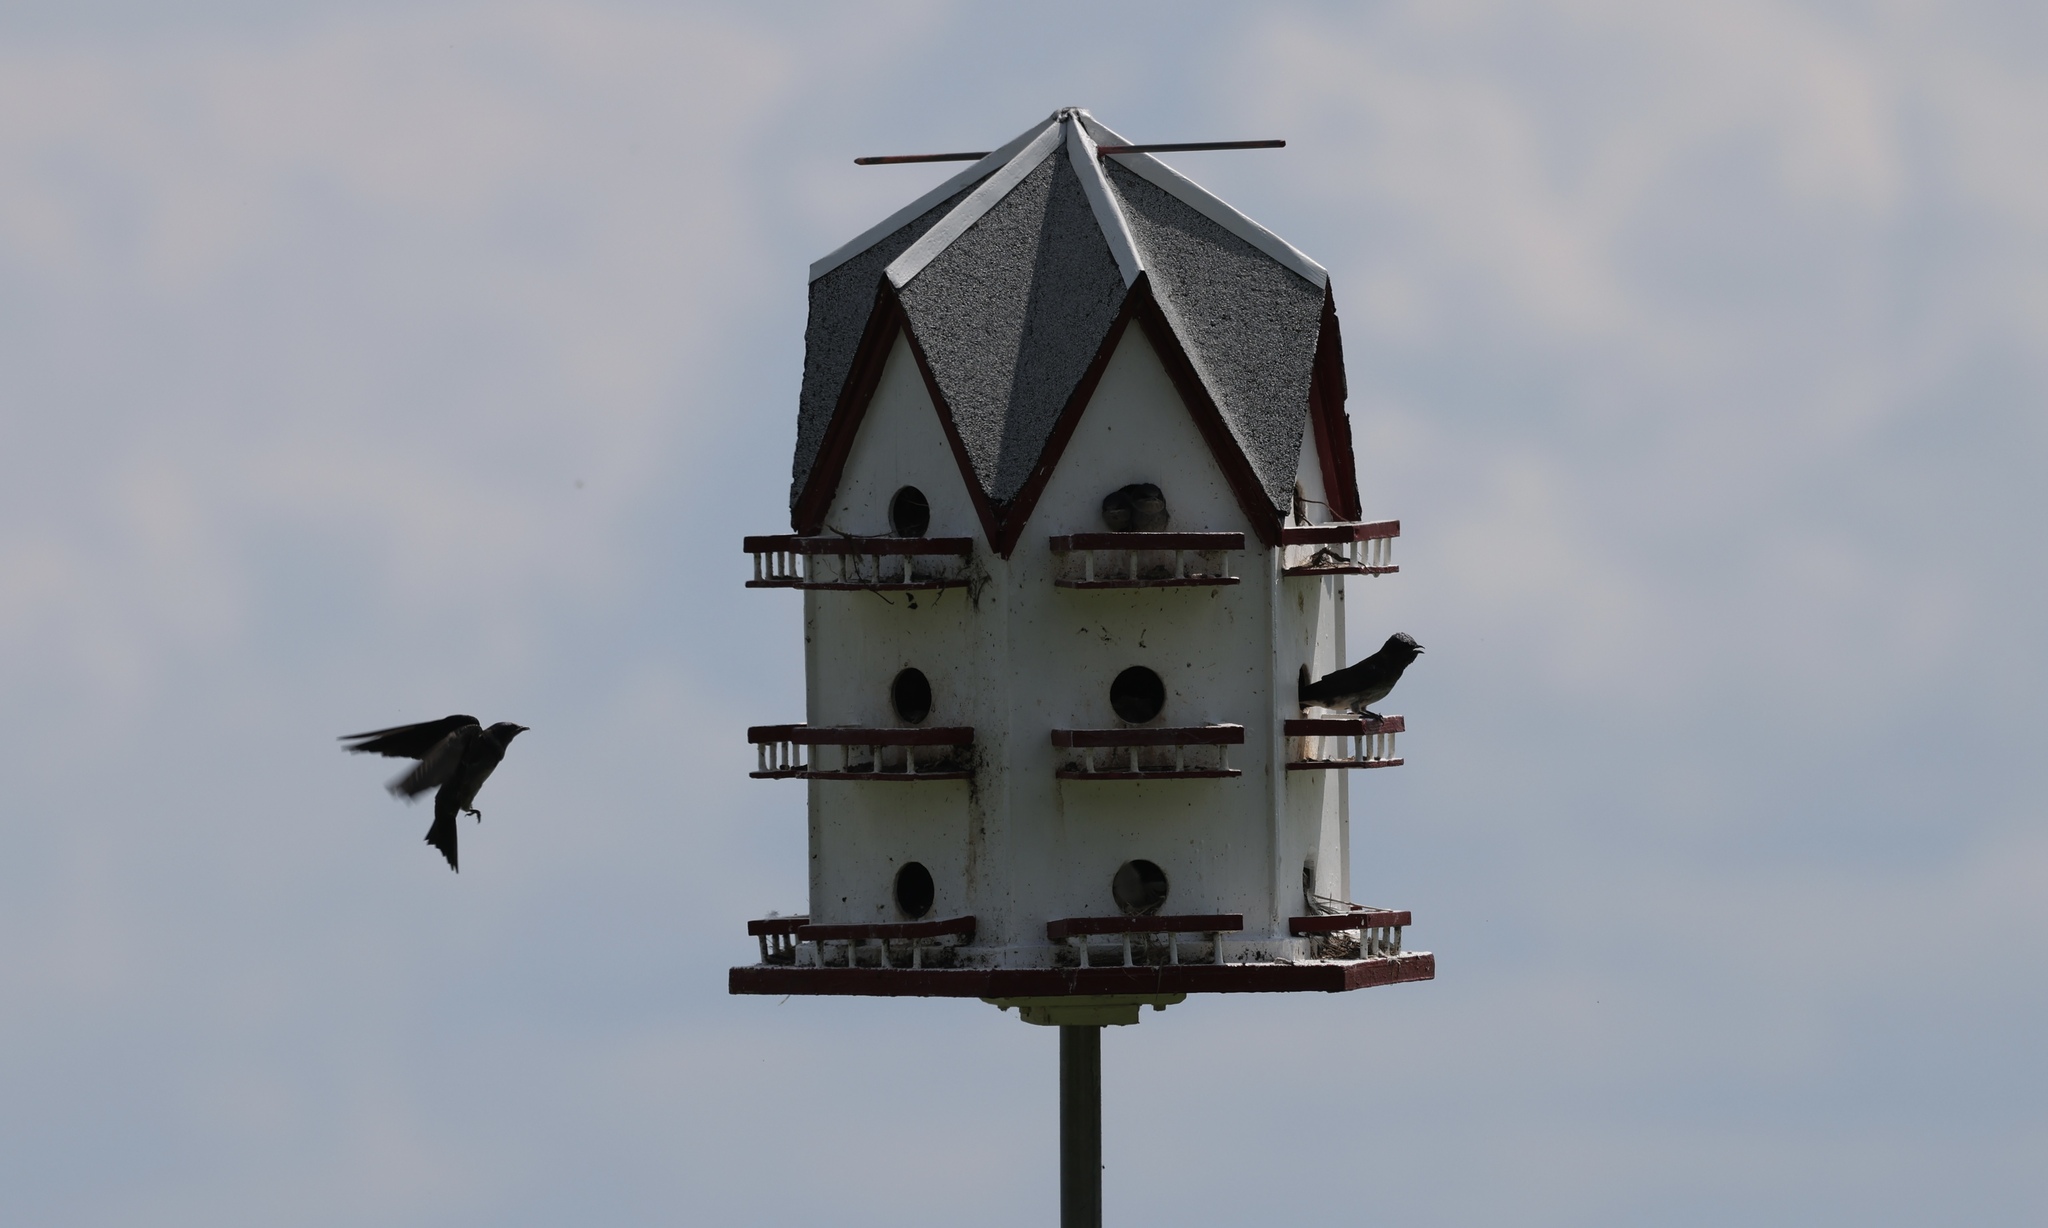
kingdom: Animalia
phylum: Chordata
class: Aves
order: Passeriformes
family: Hirundinidae
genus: Progne
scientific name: Progne subis
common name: Purple martin
